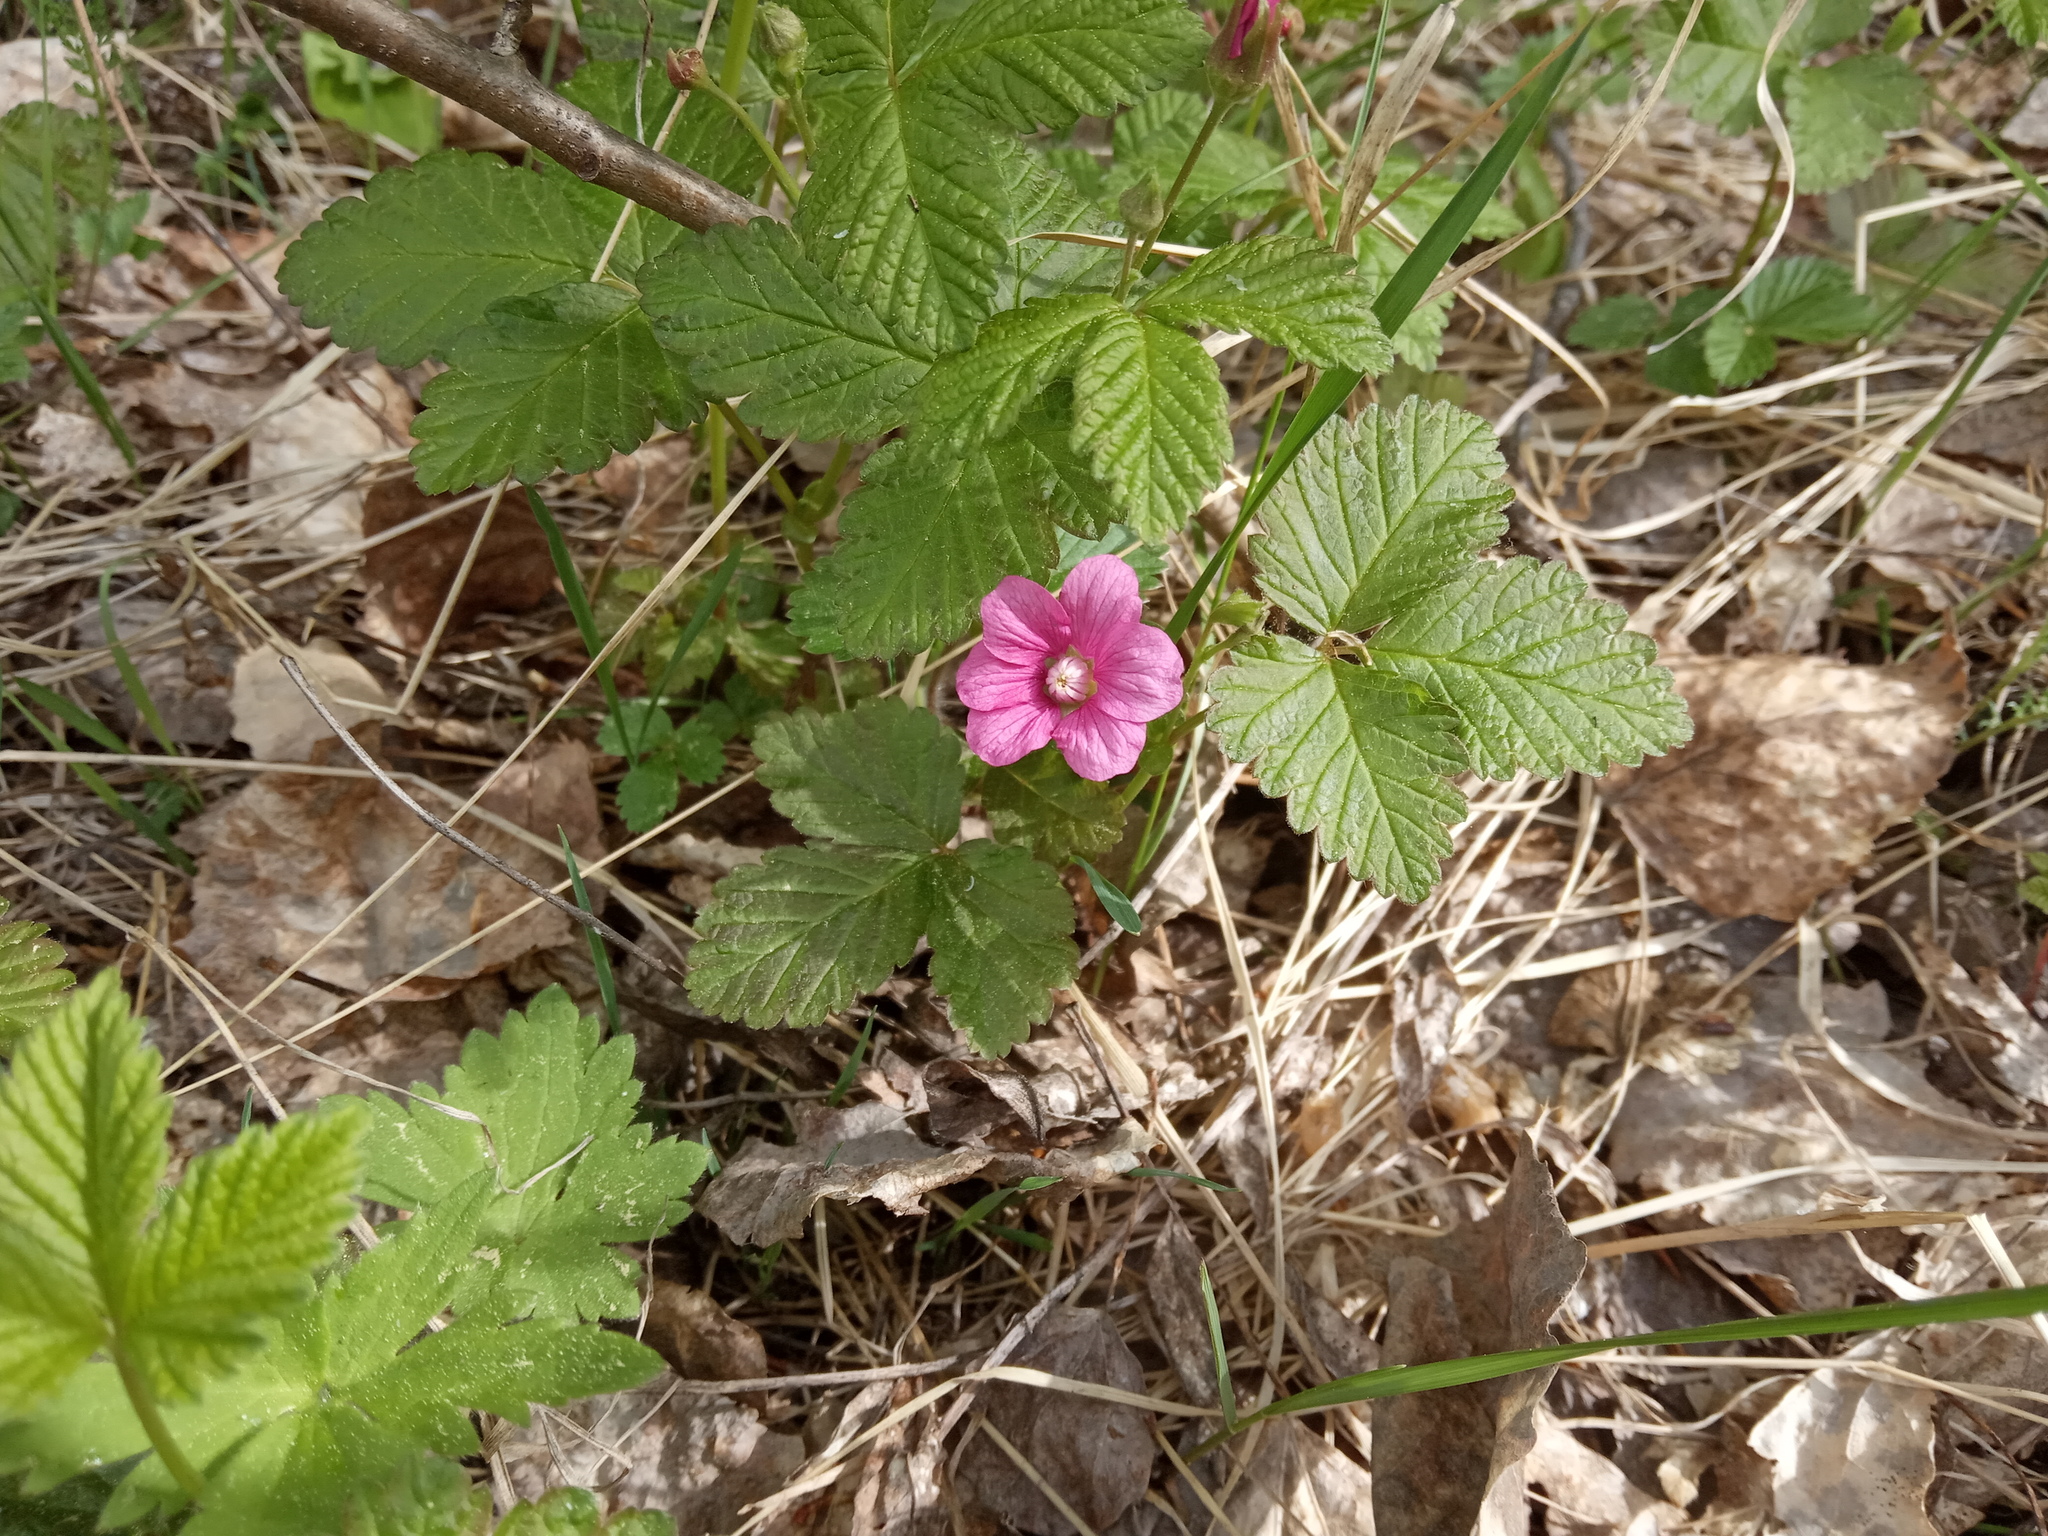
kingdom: Plantae
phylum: Tracheophyta
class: Magnoliopsida
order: Rosales
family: Rosaceae
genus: Rubus
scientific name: Rubus arcticus
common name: Arctic bramble
